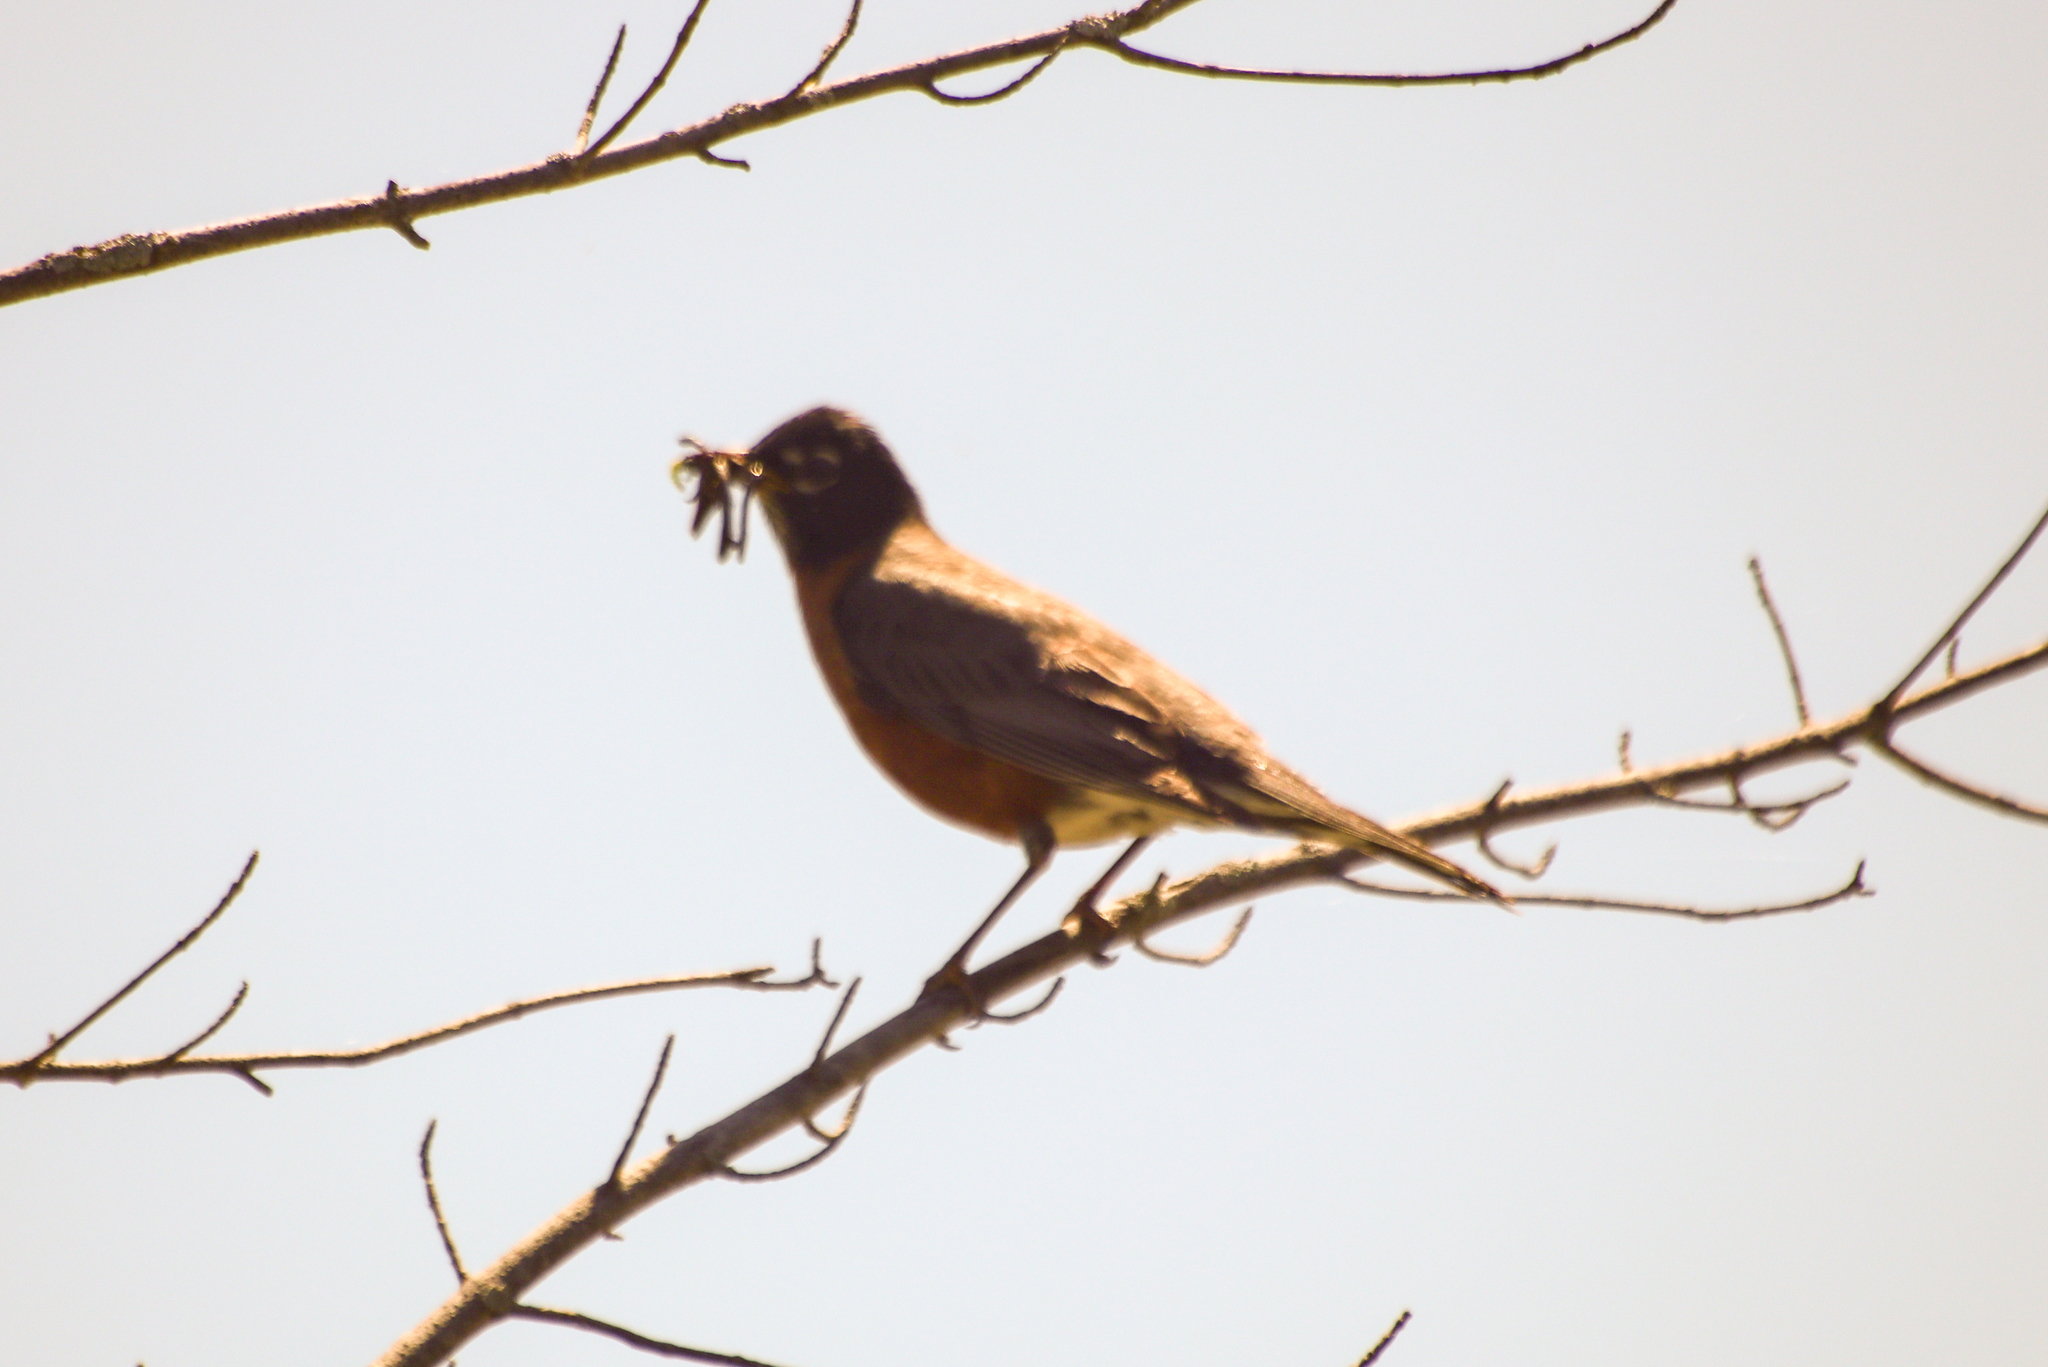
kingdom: Animalia
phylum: Chordata
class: Aves
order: Passeriformes
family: Turdidae
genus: Turdus
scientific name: Turdus migratorius
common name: American robin
